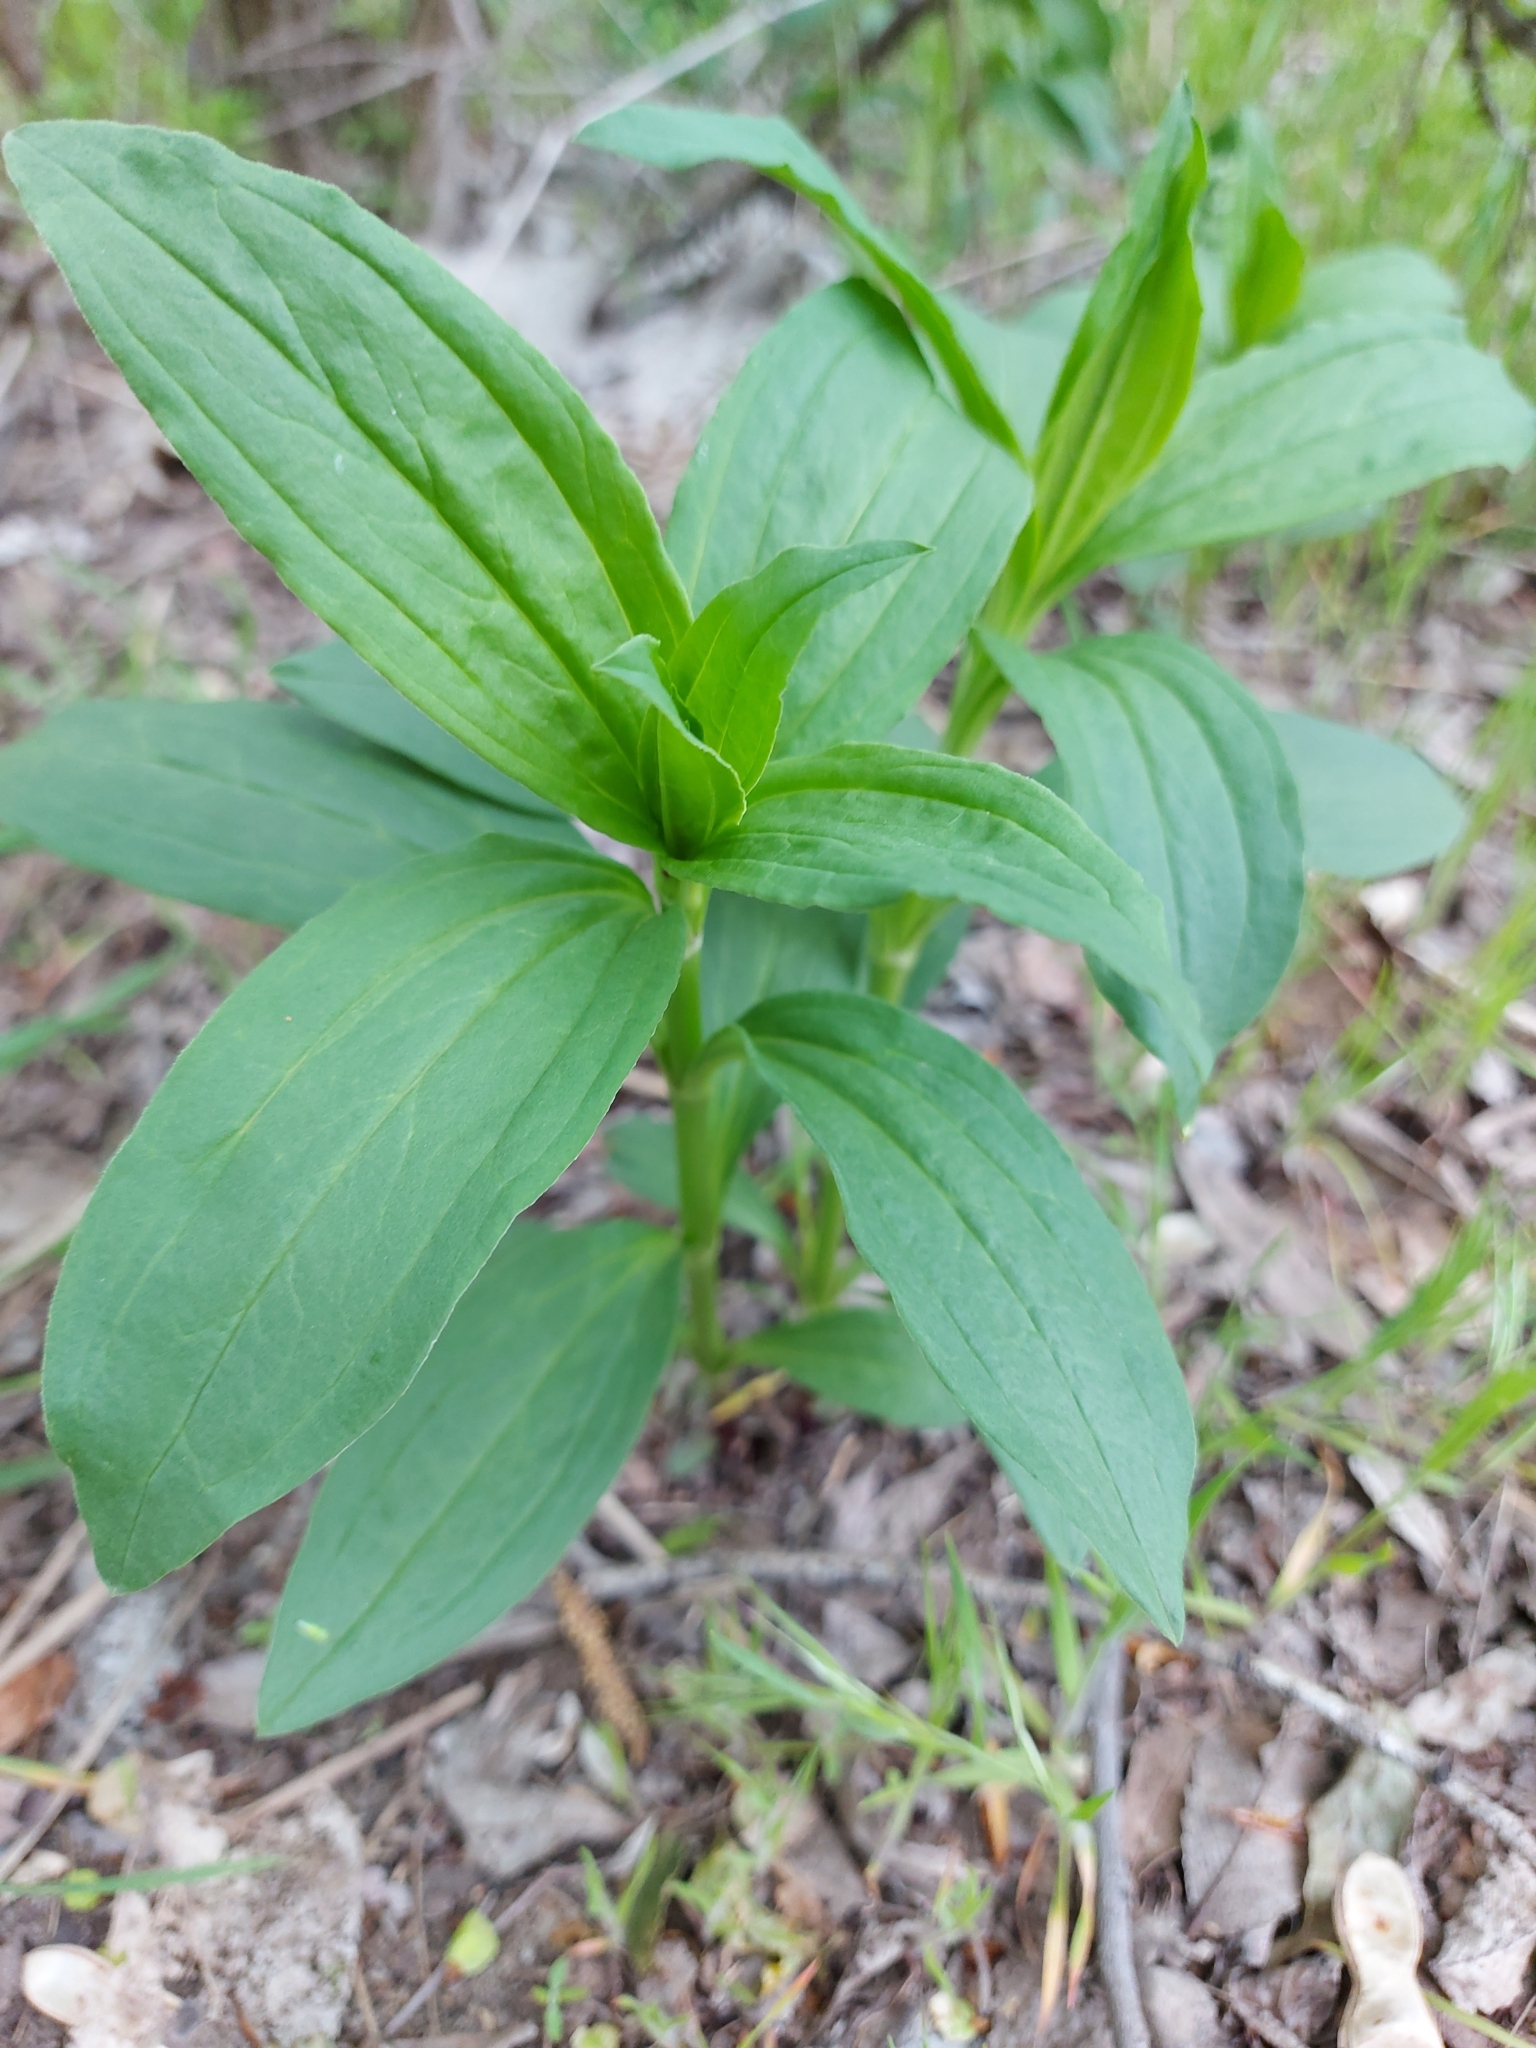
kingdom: Plantae
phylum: Tracheophyta
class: Magnoliopsida
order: Caryophyllales
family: Caryophyllaceae
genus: Saponaria
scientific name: Saponaria officinalis
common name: Soapwort
